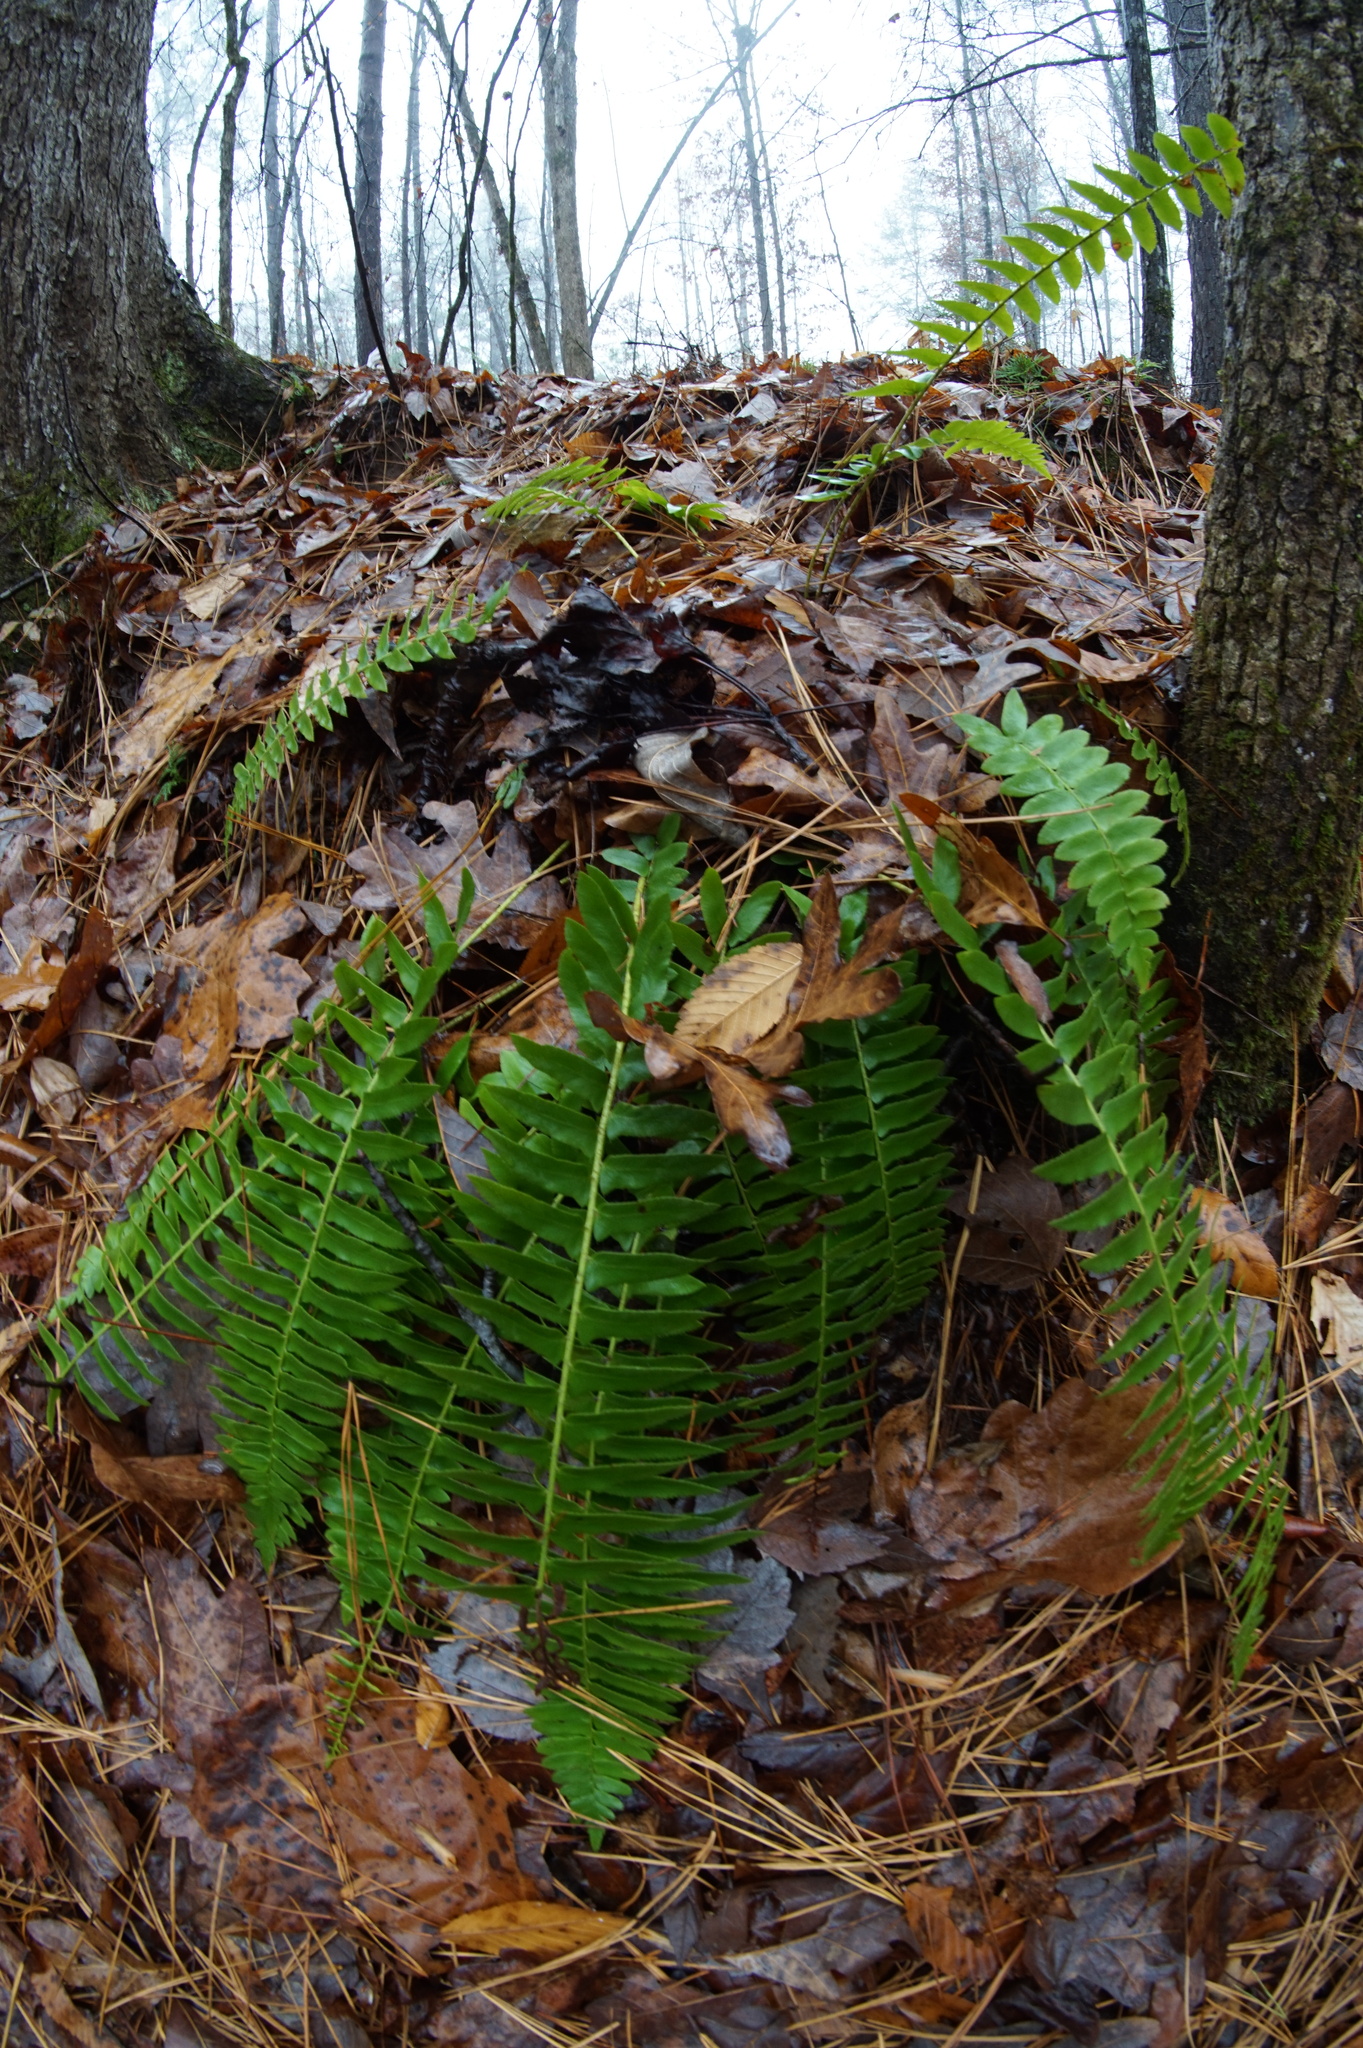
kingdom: Plantae
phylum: Tracheophyta
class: Polypodiopsida
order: Polypodiales
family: Dryopteridaceae
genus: Polystichum
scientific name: Polystichum acrostichoides
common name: Christmas fern
